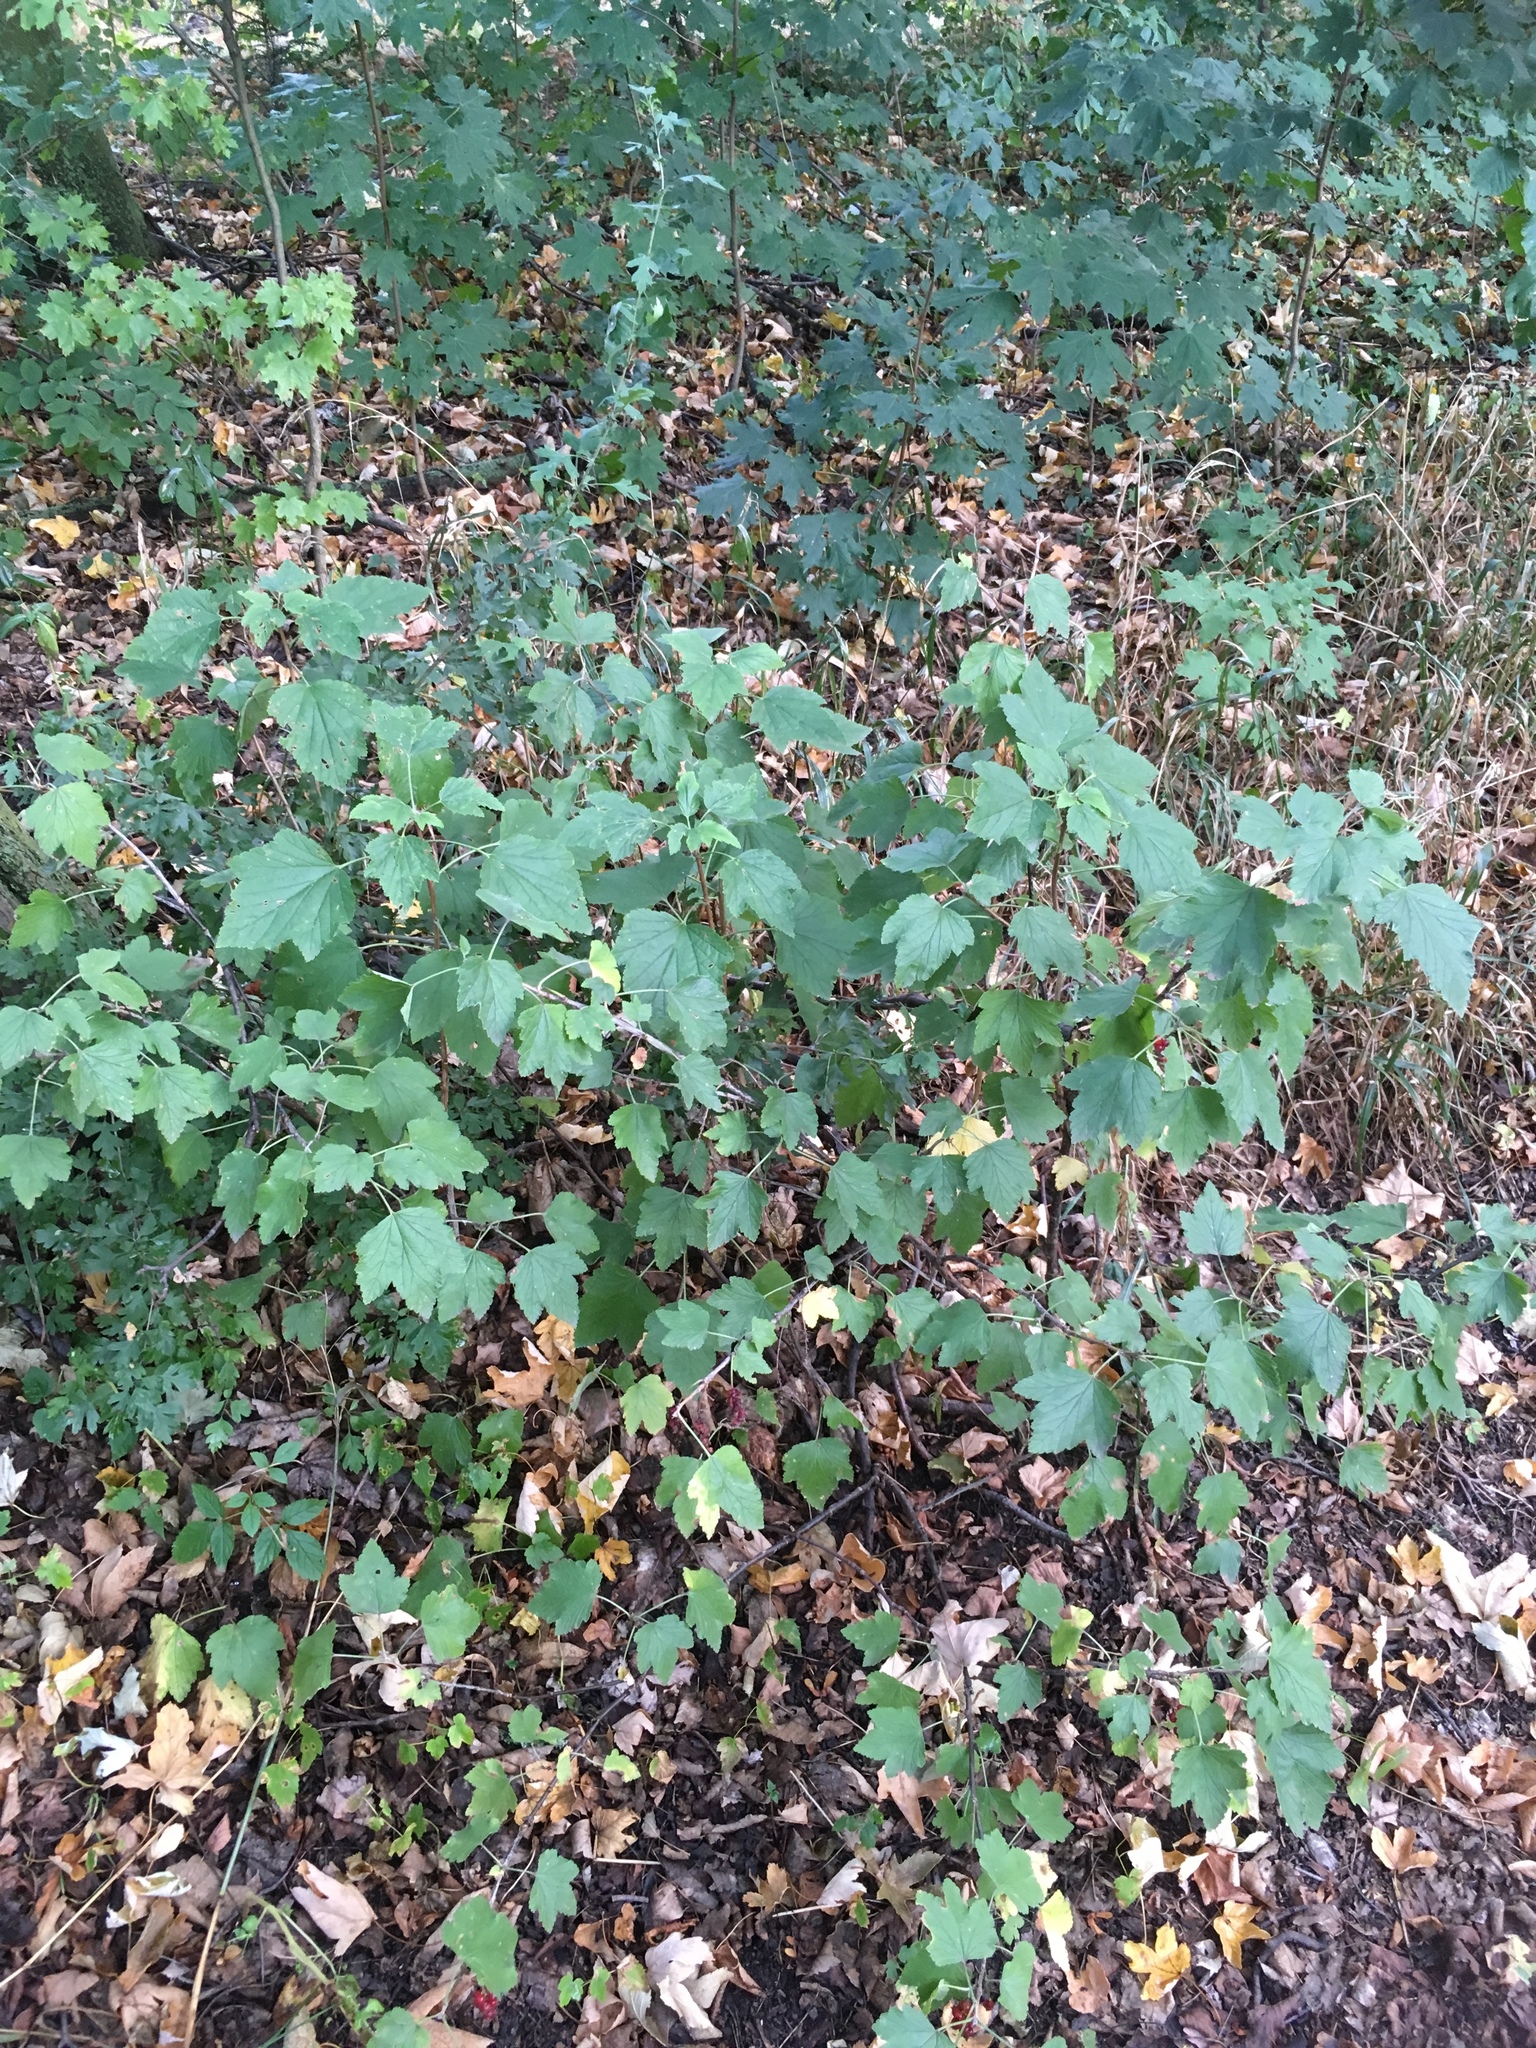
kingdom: Plantae
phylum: Tracheophyta
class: Magnoliopsida
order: Saxifragales
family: Grossulariaceae
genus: Ribes
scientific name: Ribes rubrum
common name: Red currant
